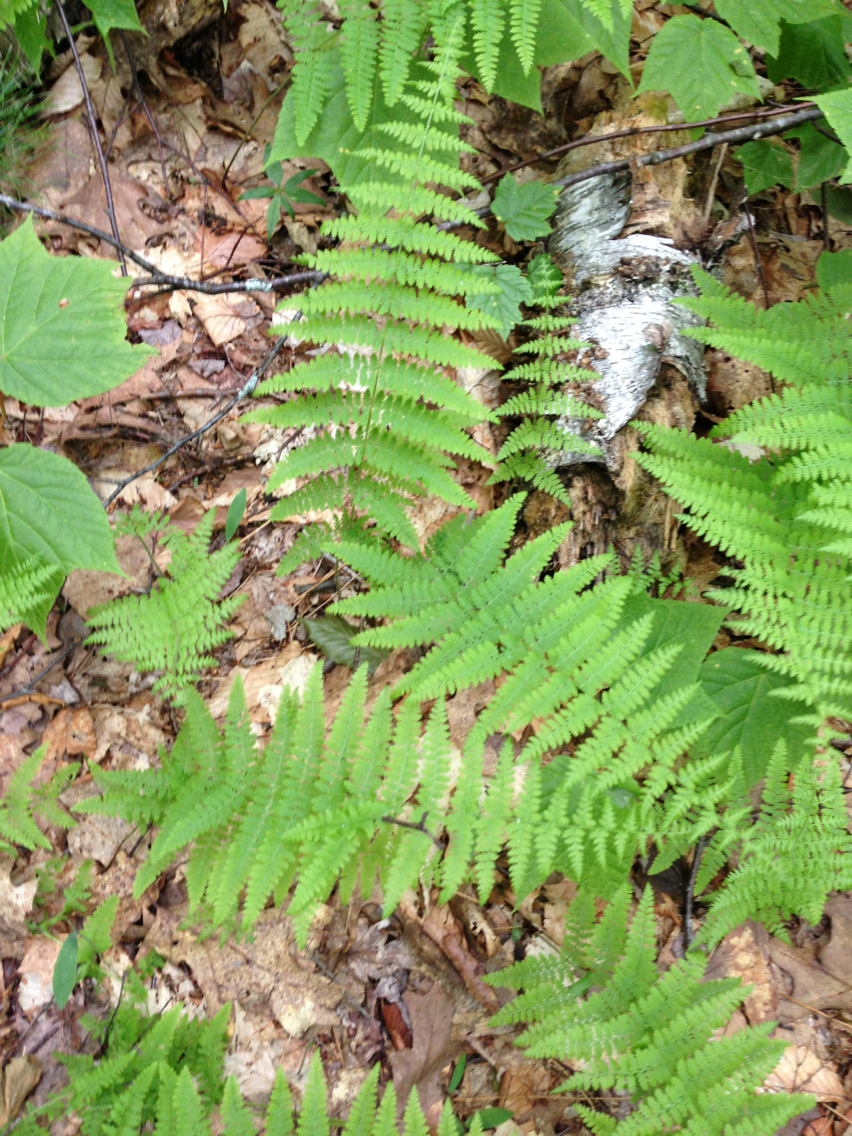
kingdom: Plantae
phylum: Tracheophyta
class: Polypodiopsida
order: Polypodiales
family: Thelypteridaceae
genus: Amauropelta
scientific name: Amauropelta noveboracensis
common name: New york fern
